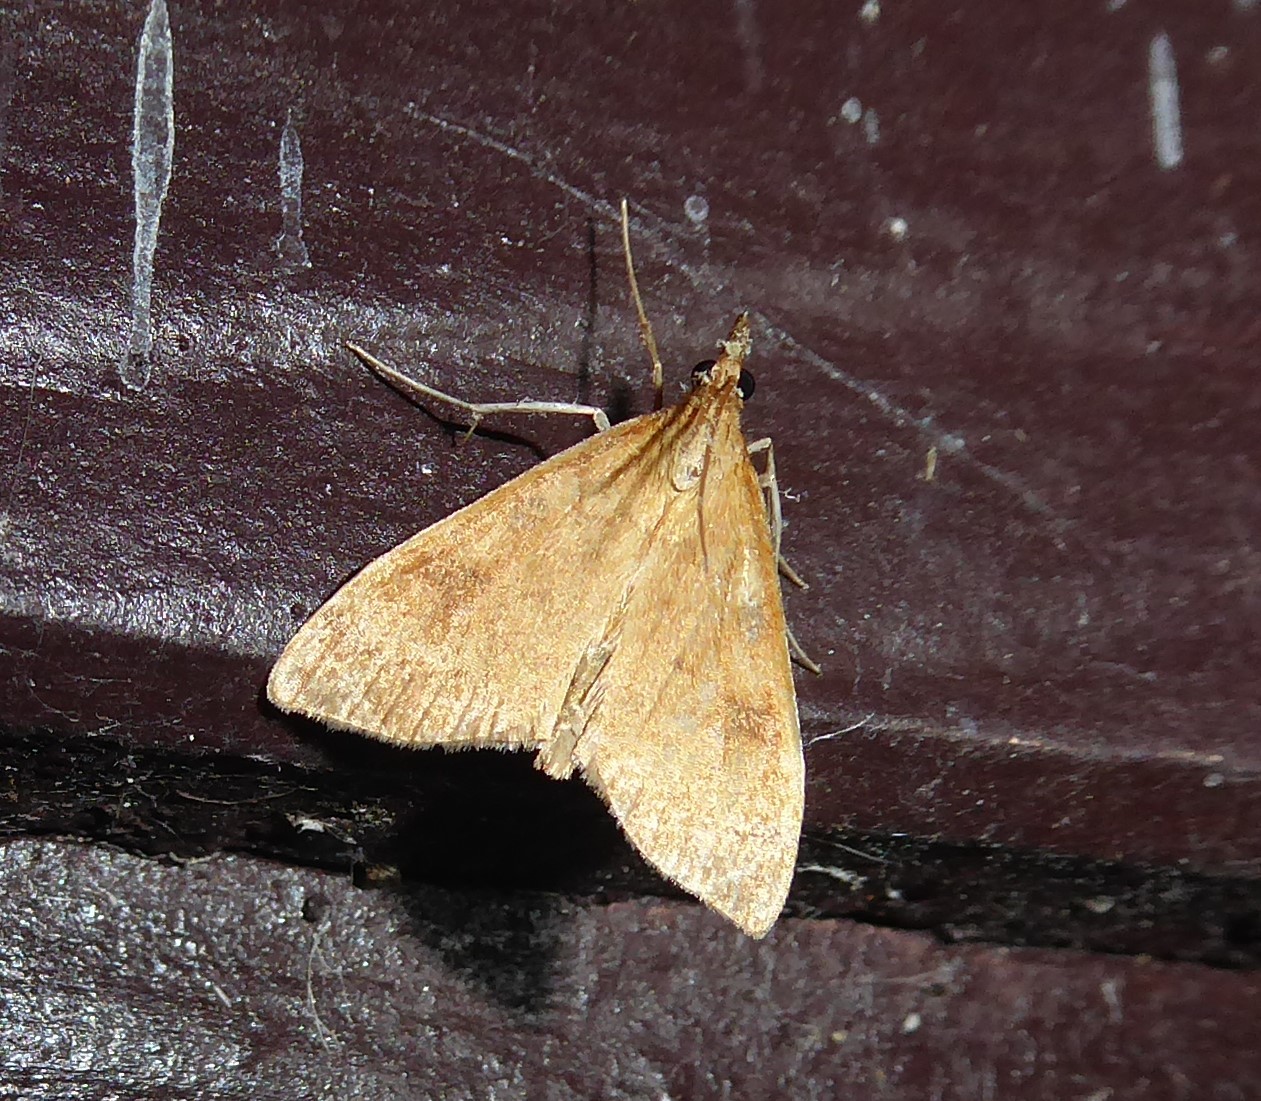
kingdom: Animalia
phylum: Arthropoda
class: Insecta
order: Lepidoptera
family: Crambidae
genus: Udea
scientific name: Udea Mnesictena flavidalis
